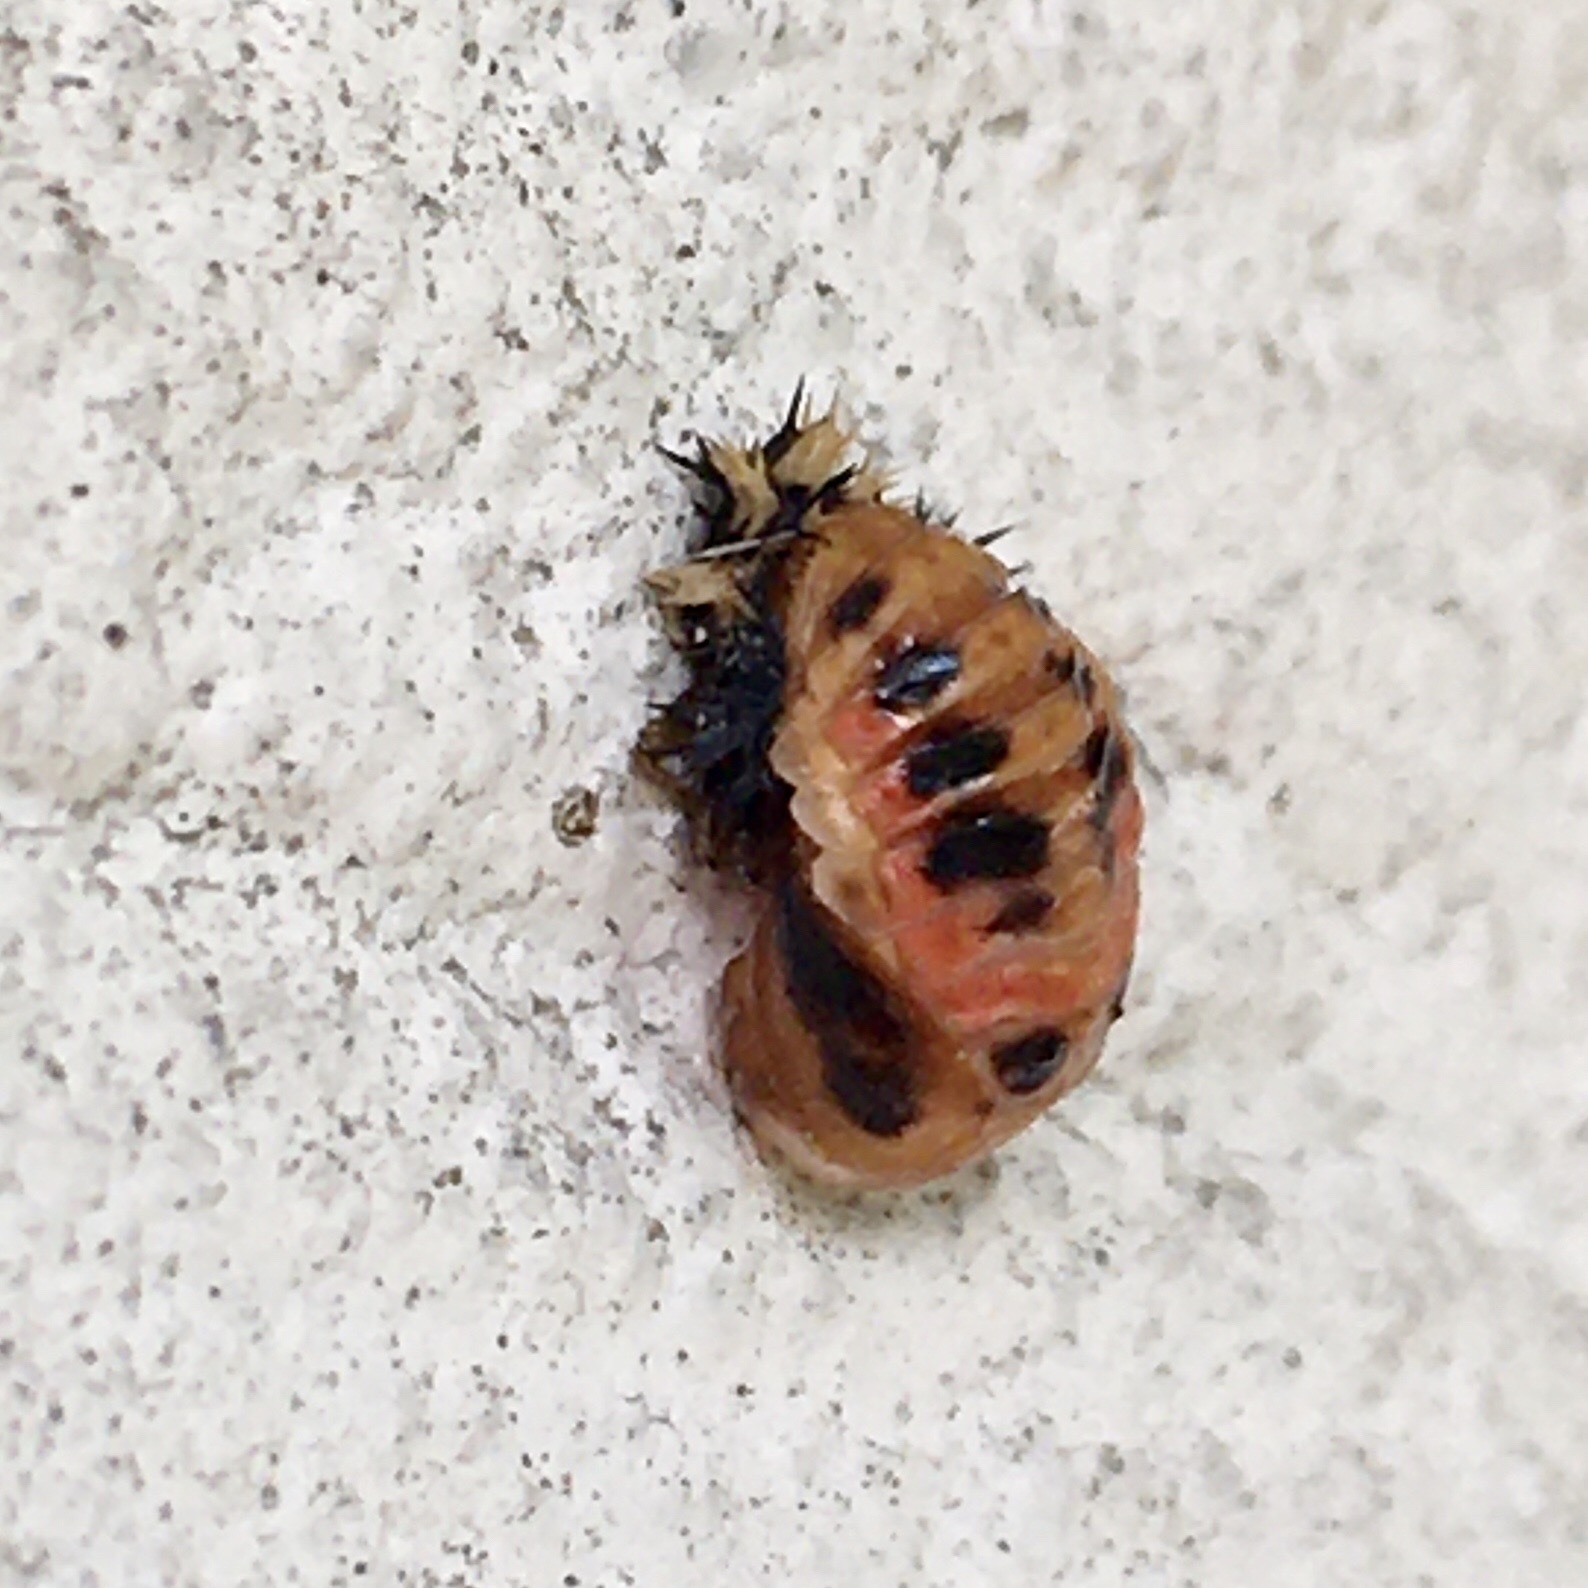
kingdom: Animalia
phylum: Arthropoda
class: Insecta
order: Coleoptera
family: Coccinellidae
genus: Harmonia
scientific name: Harmonia axyridis
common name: Harlequin ladybird
